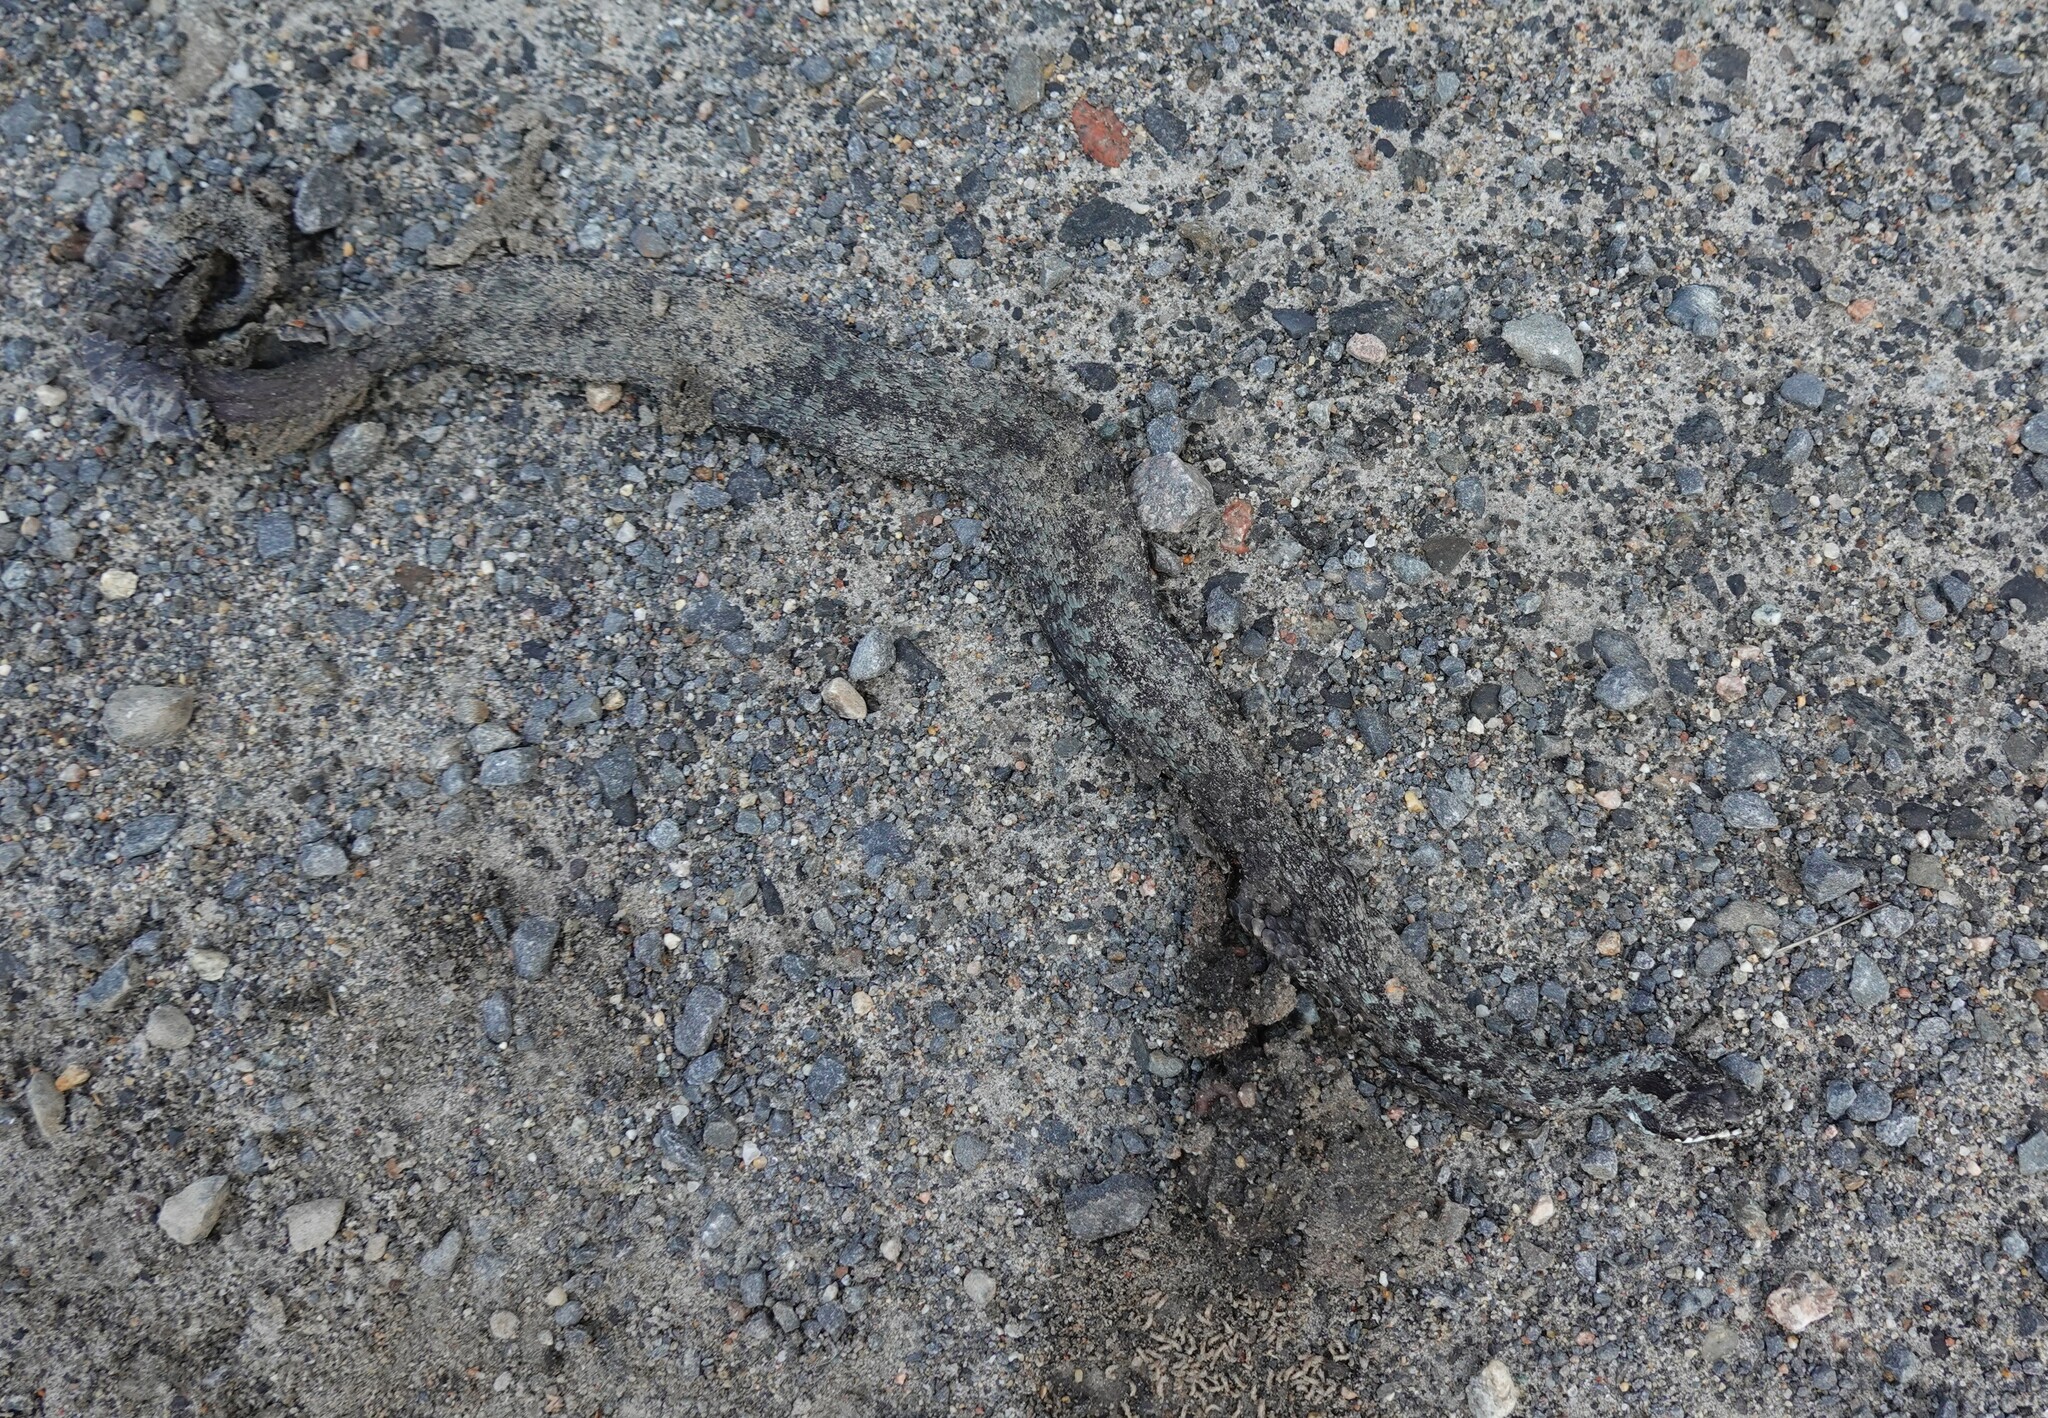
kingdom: Animalia
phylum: Chordata
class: Squamata
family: Viperidae
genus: Vipera
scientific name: Vipera berus
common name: Adder
